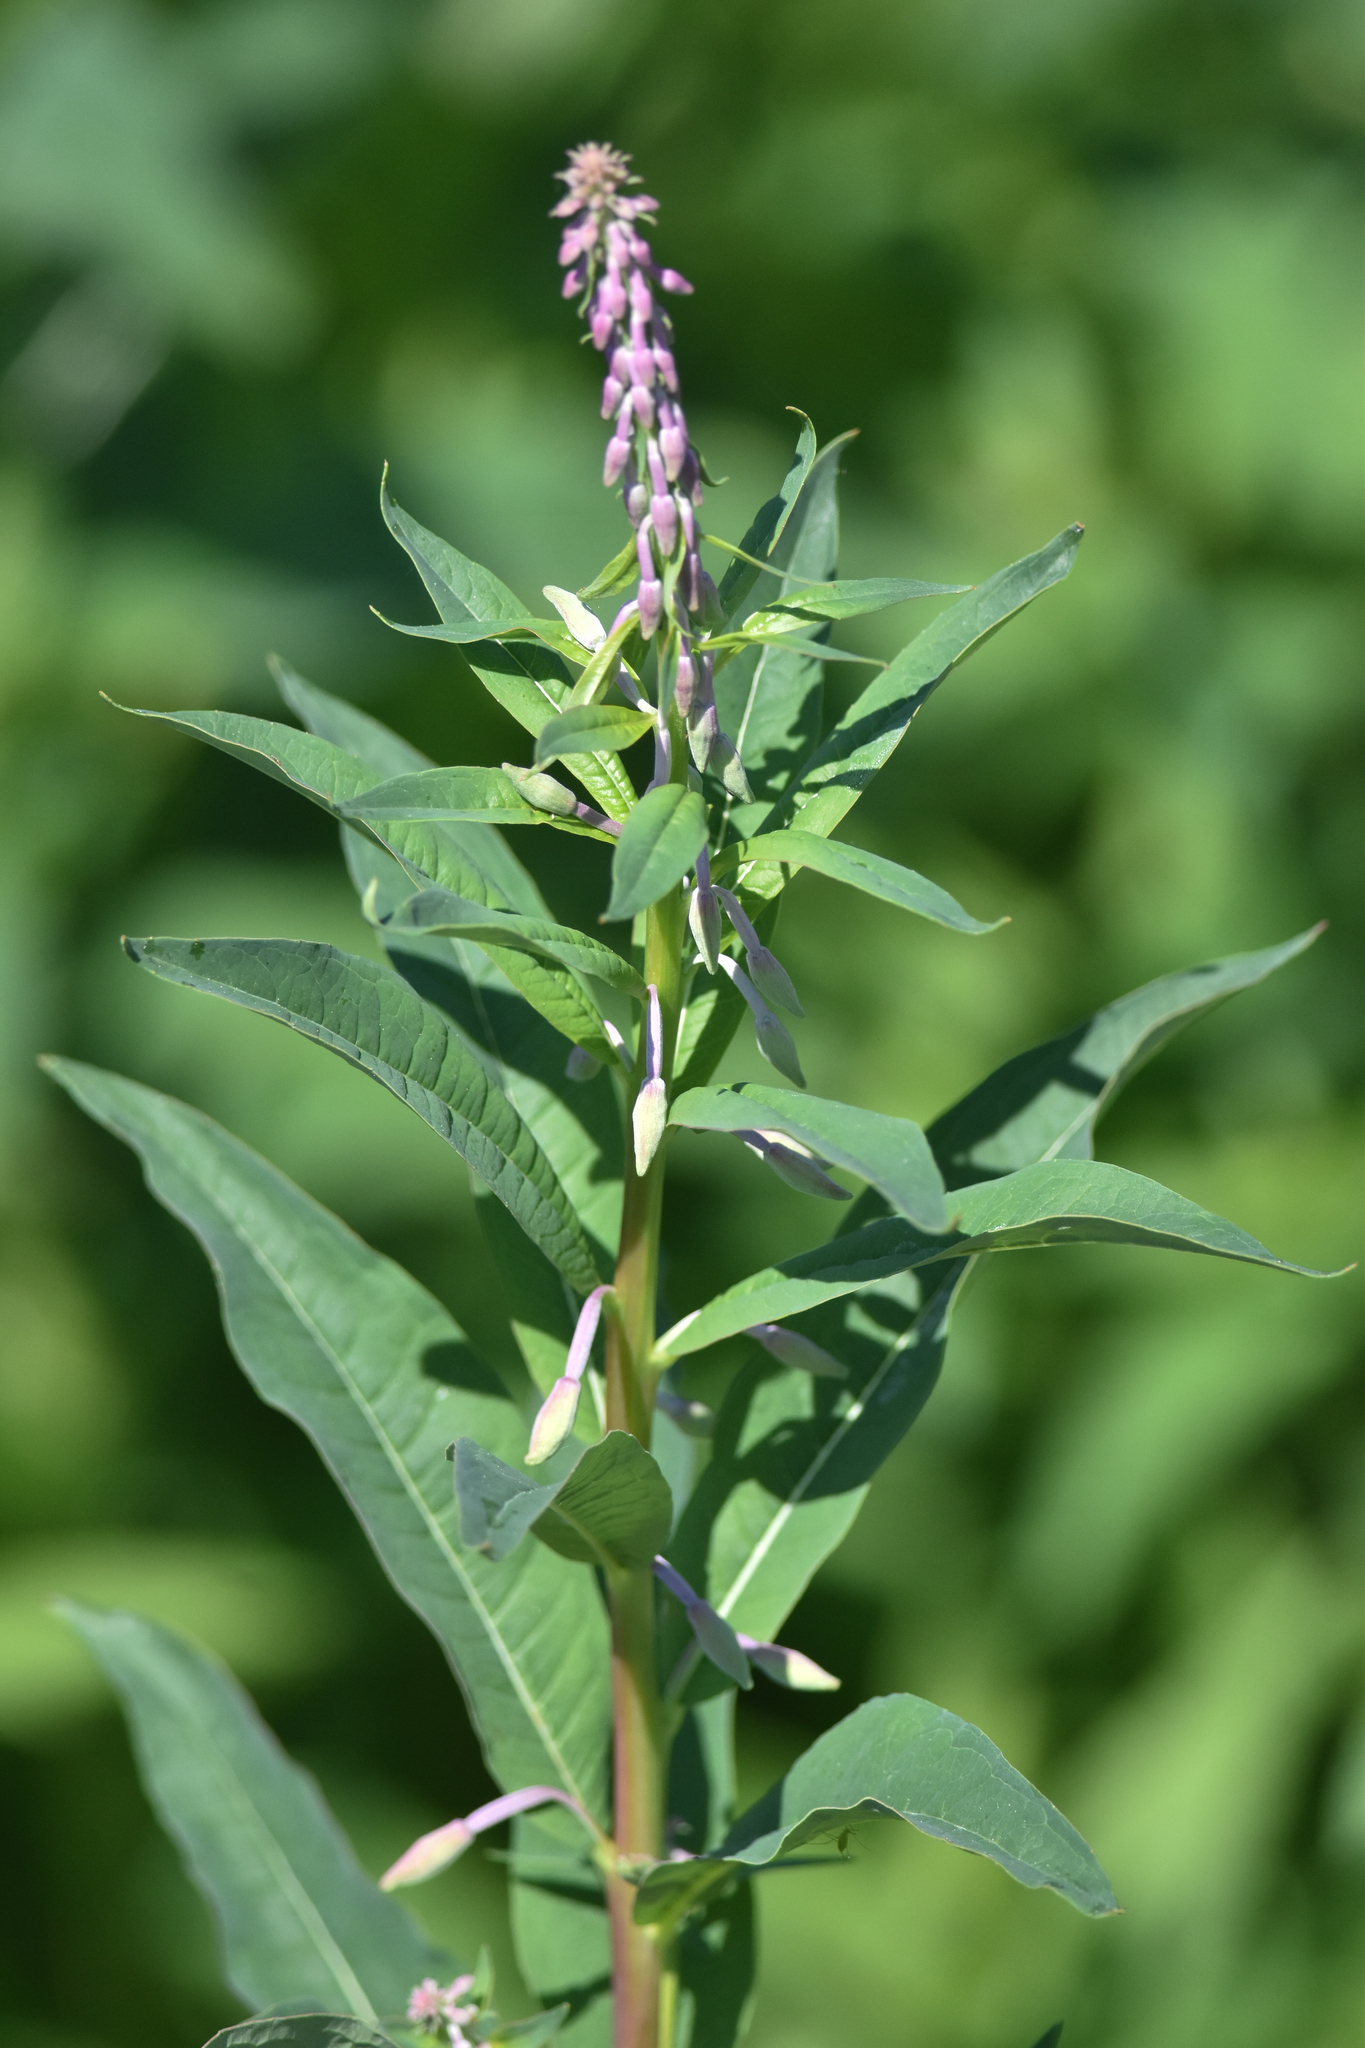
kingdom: Plantae
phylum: Tracheophyta
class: Magnoliopsida
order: Myrtales
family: Onagraceae
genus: Chamaenerion
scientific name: Chamaenerion angustifolium
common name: Fireweed
